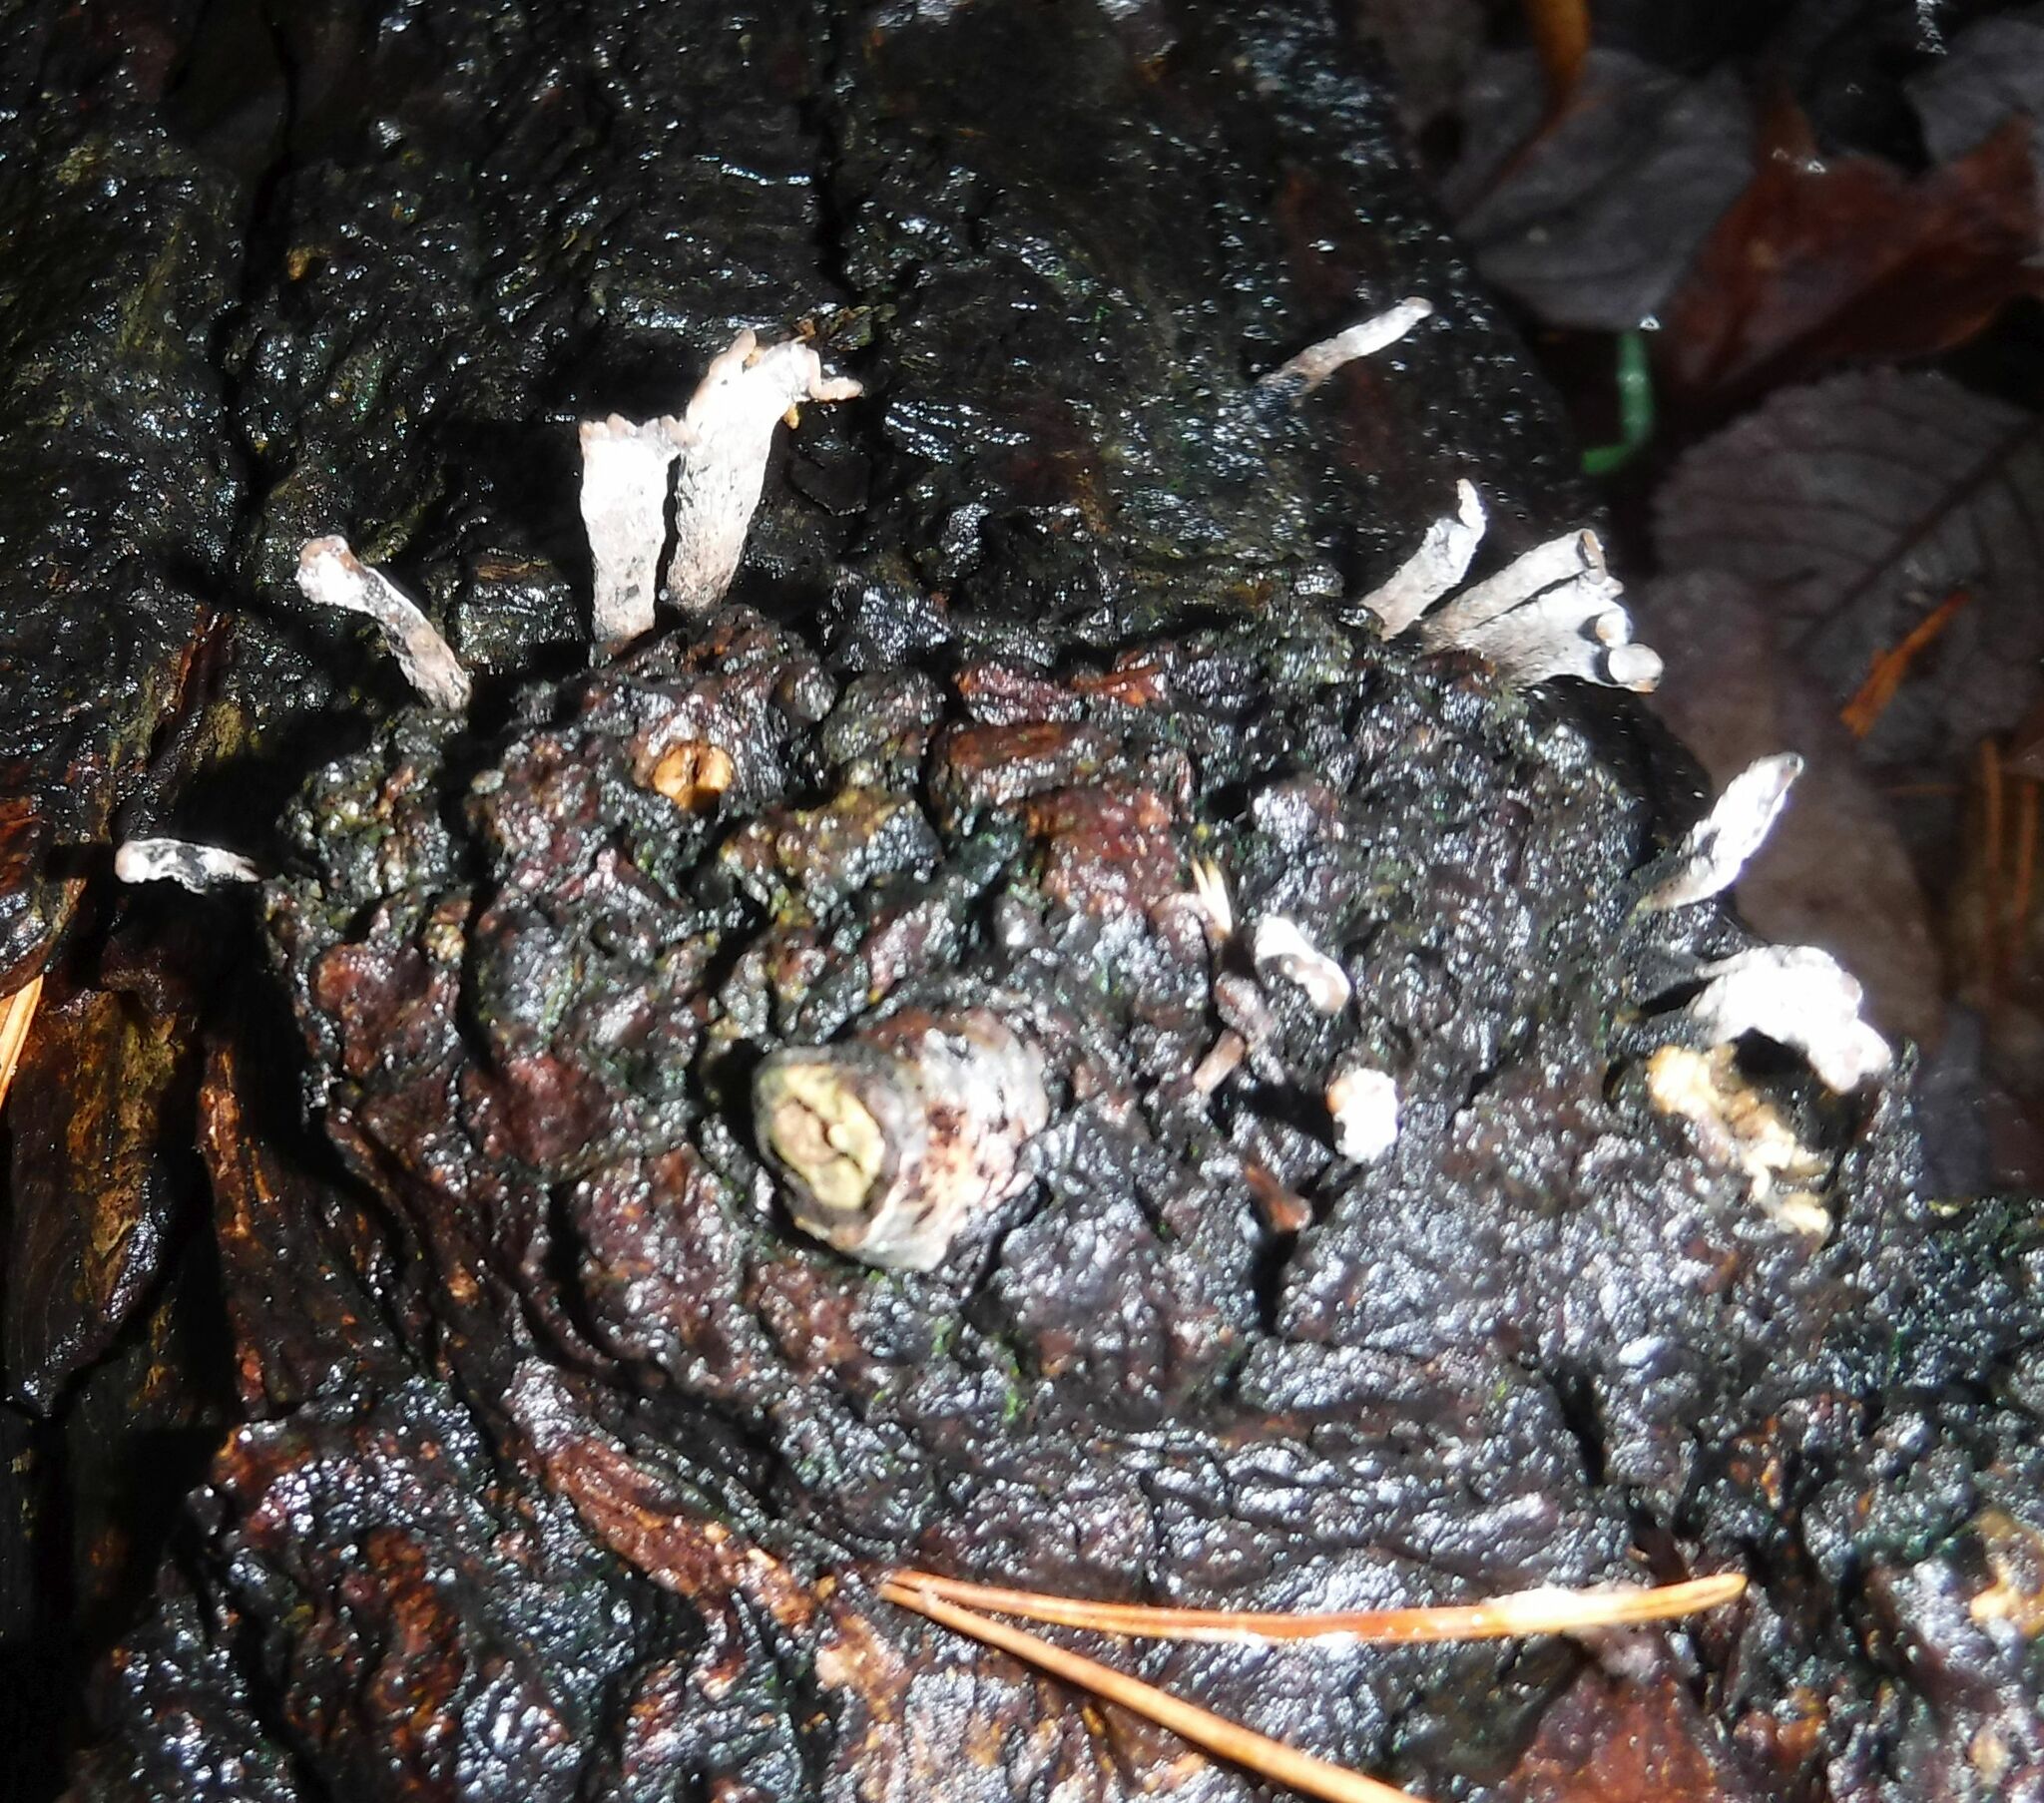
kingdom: Fungi
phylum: Ascomycota
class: Sordariomycetes
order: Xylariales
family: Xylariaceae
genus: Xylaria
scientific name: Xylaria hypoxylon
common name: Candle-snuff fungus
